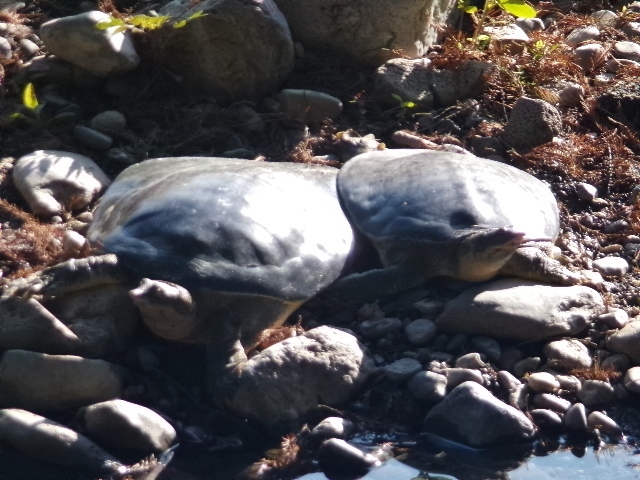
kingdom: Animalia
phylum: Chordata
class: Testudines
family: Trionychidae
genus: Apalone
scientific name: Apalone spinifera
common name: Spiny softshell turtle
